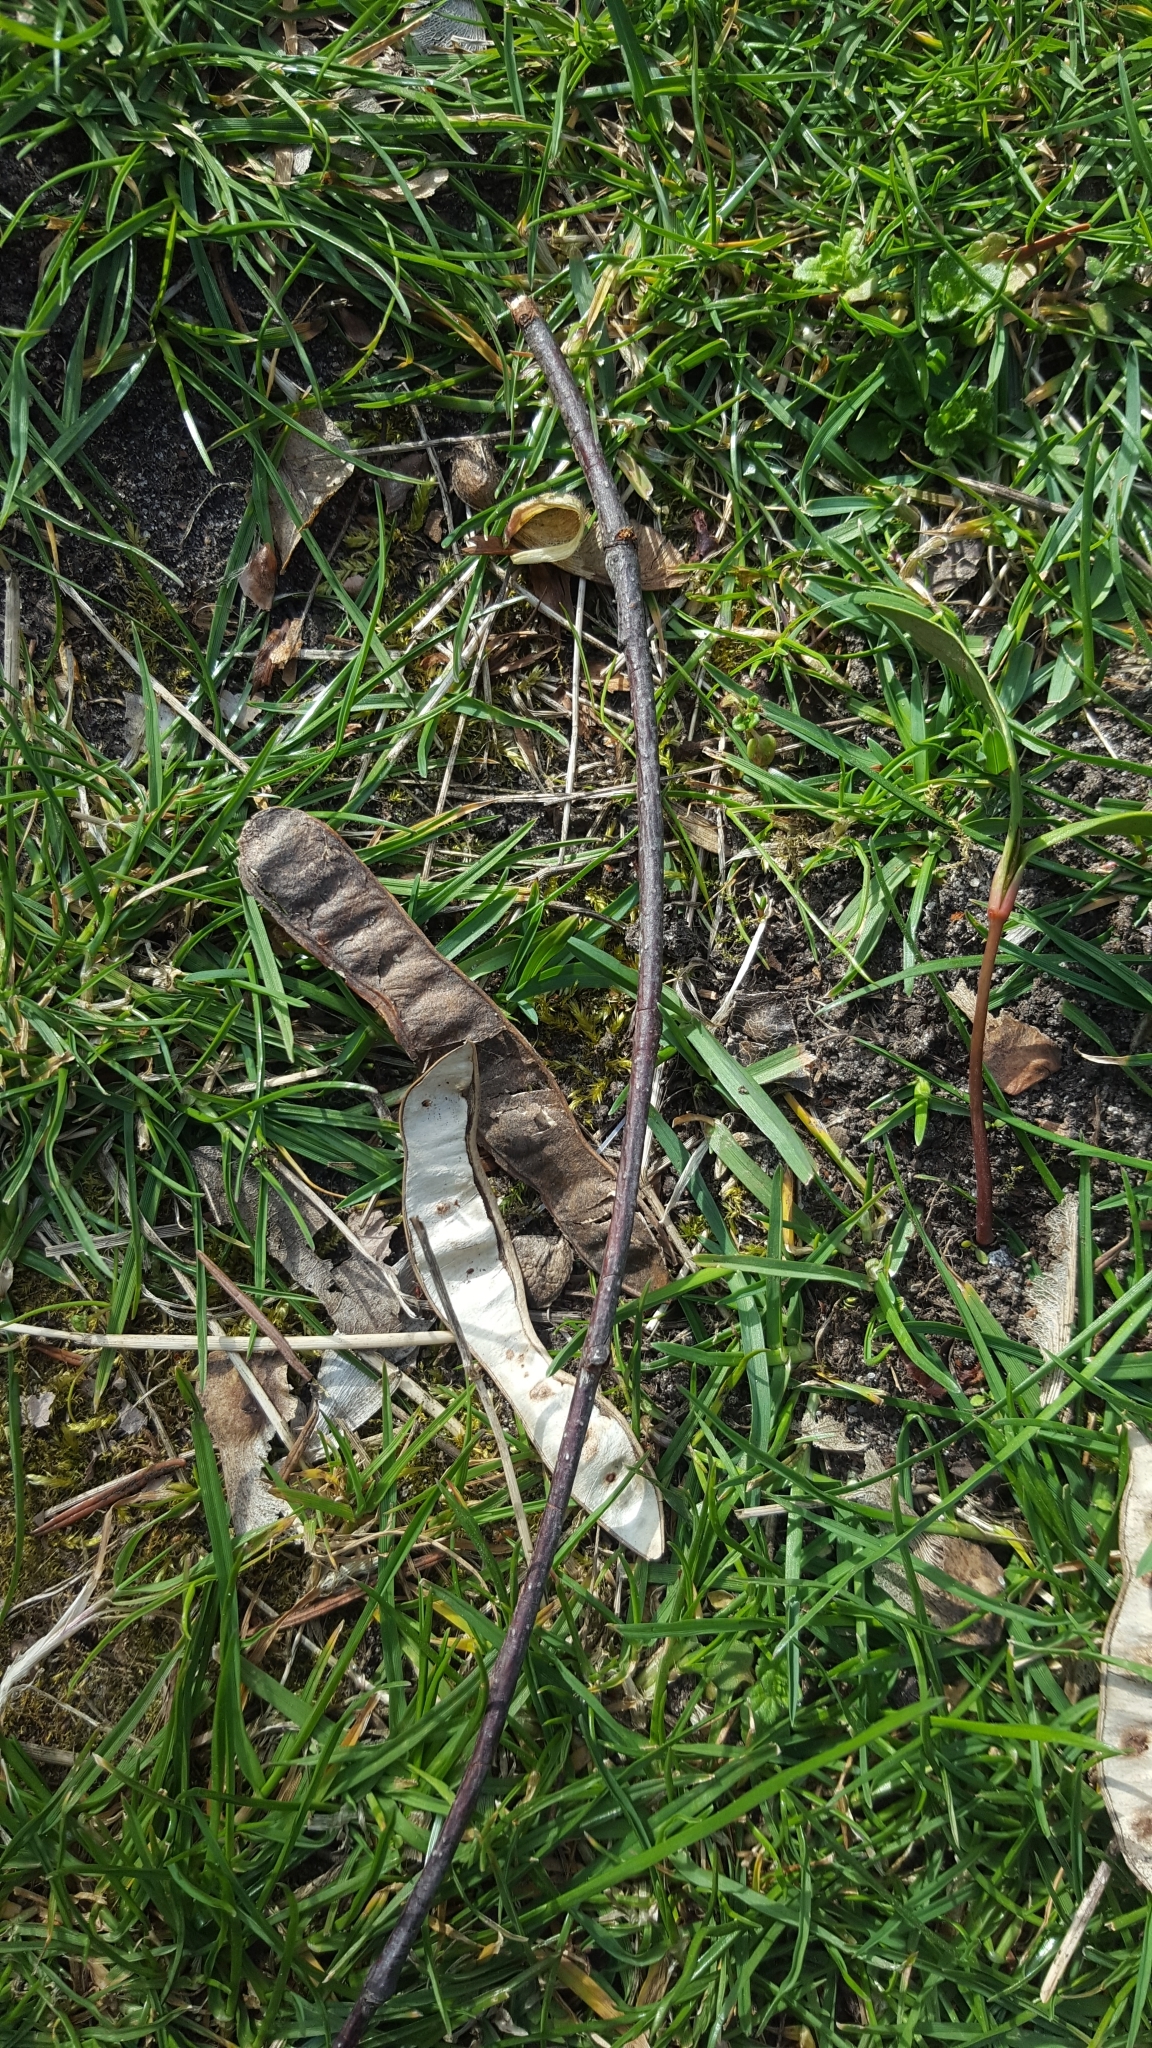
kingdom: Plantae
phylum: Tracheophyta
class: Magnoliopsida
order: Fabales
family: Fabaceae
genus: Robinia
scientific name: Robinia pseudoacacia
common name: Black locust
